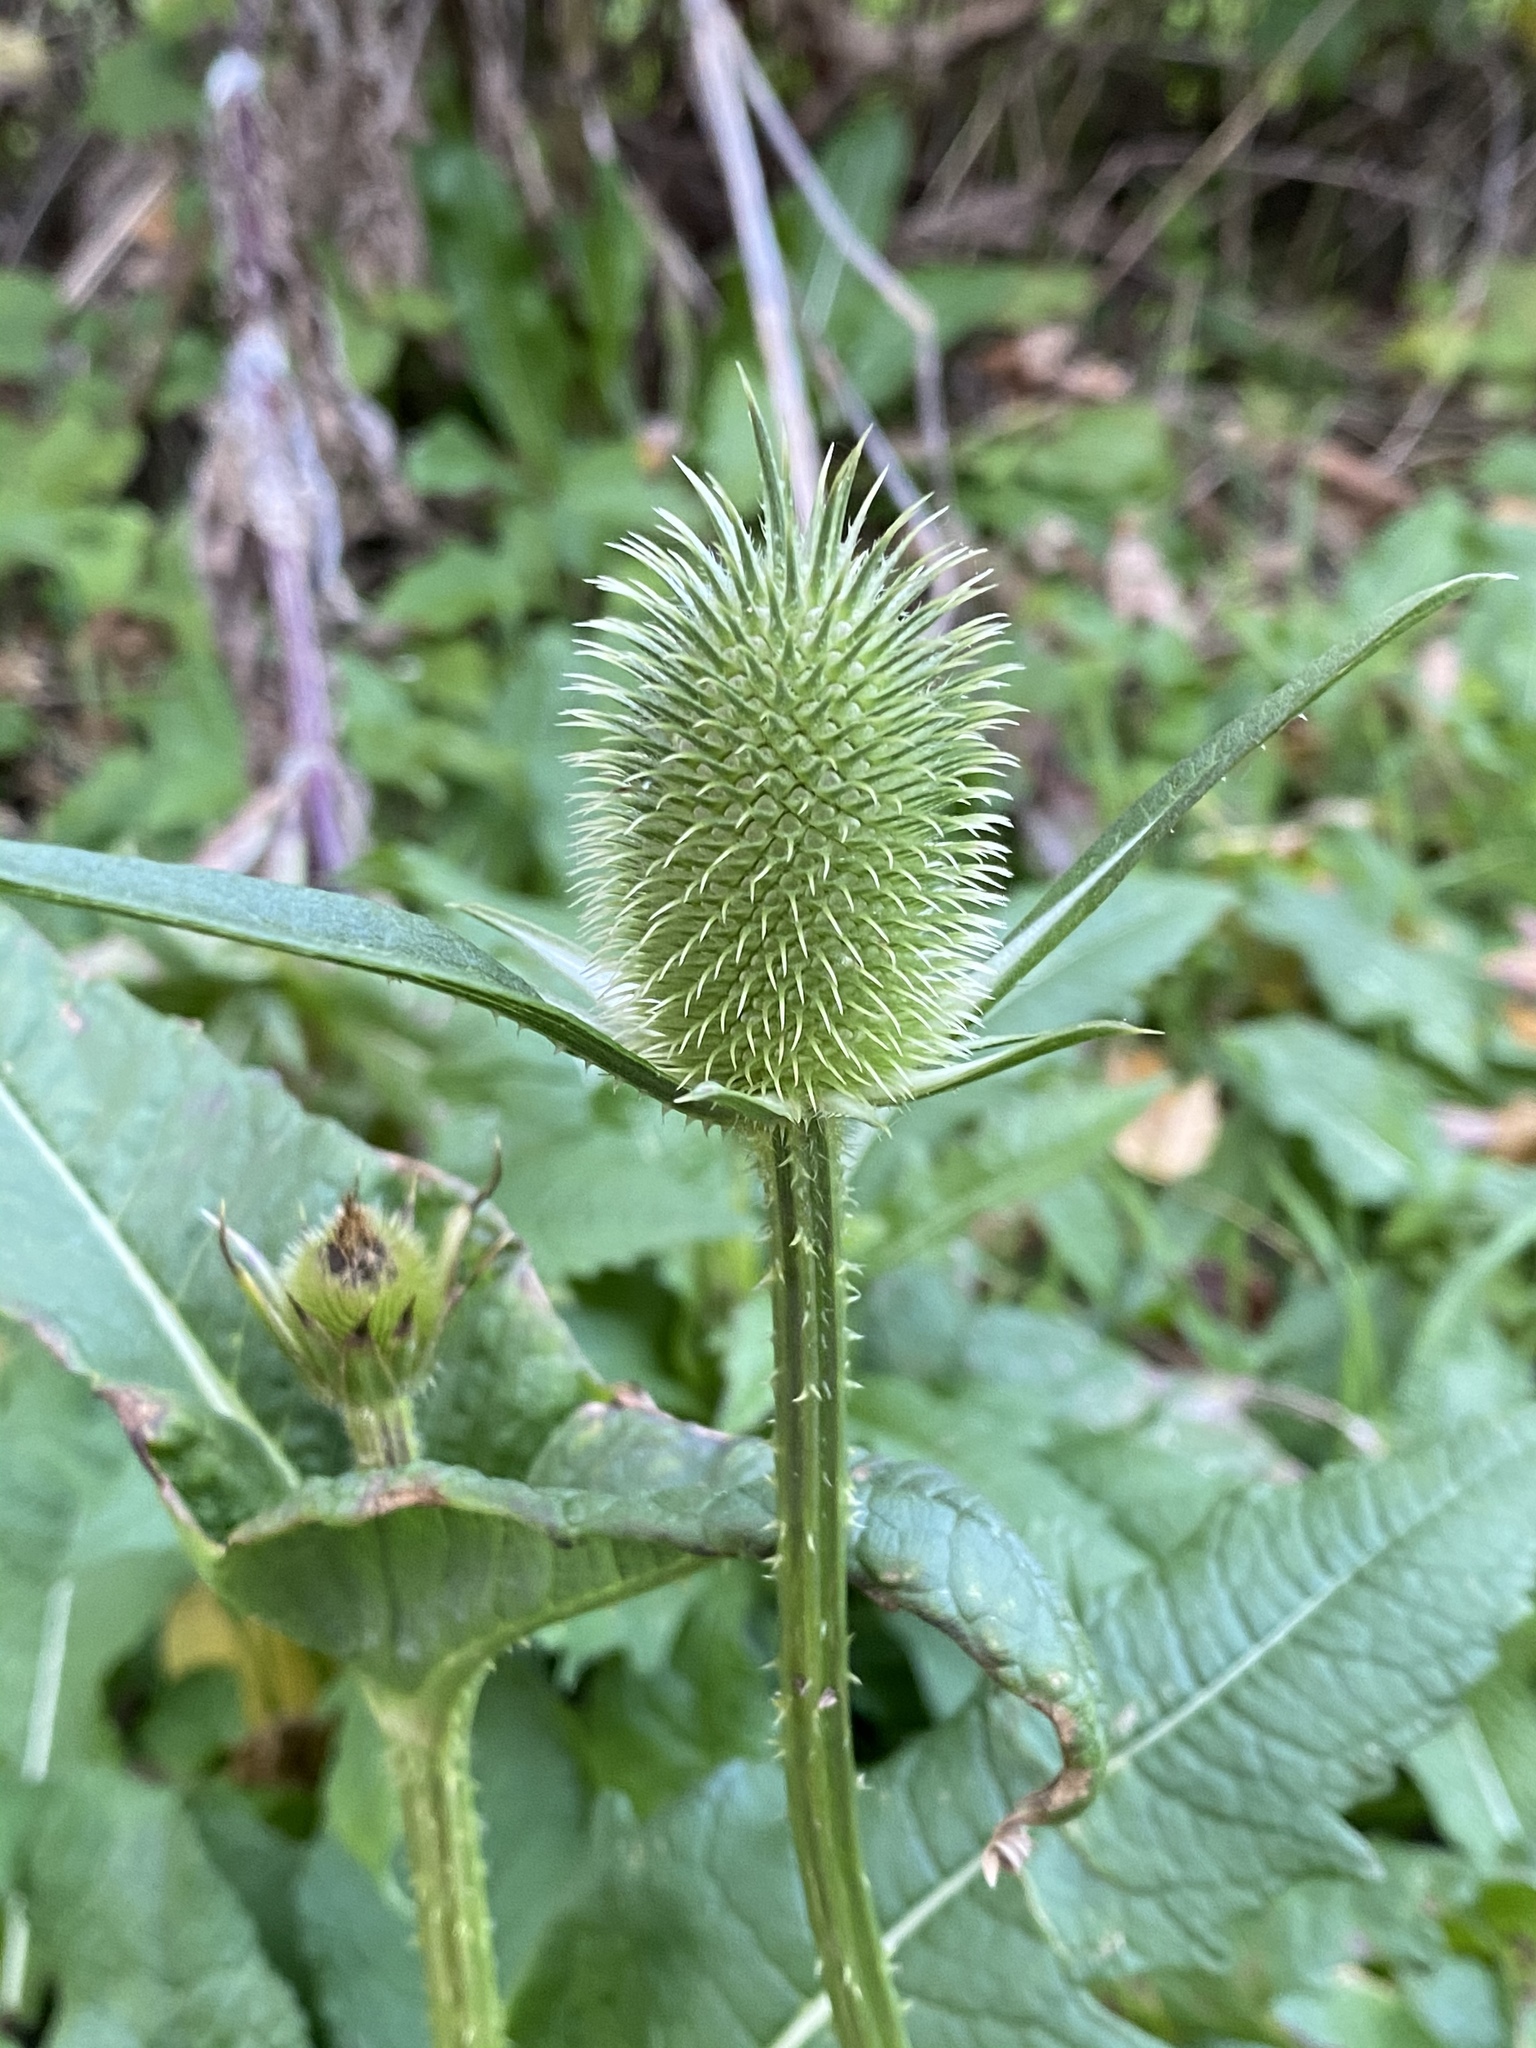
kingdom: Plantae
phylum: Tracheophyta
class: Magnoliopsida
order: Dipsacales
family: Caprifoliaceae
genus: Dipsacus
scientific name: Dipsacus laciniatus
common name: Cut-leaved teasel
